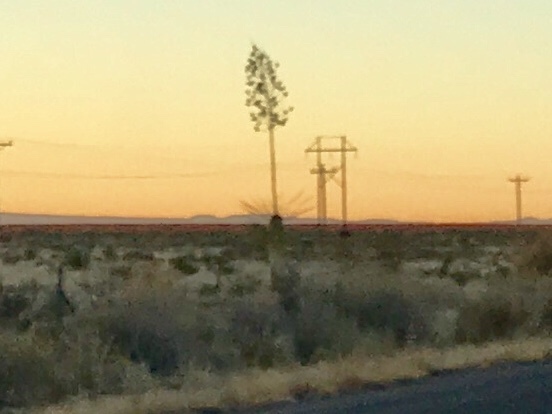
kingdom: Plantae
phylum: Tracheophyta
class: Liliopsida
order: Asparagales
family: Asparagaceae
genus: Yucca
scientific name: Yucca elata
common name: Palmella
